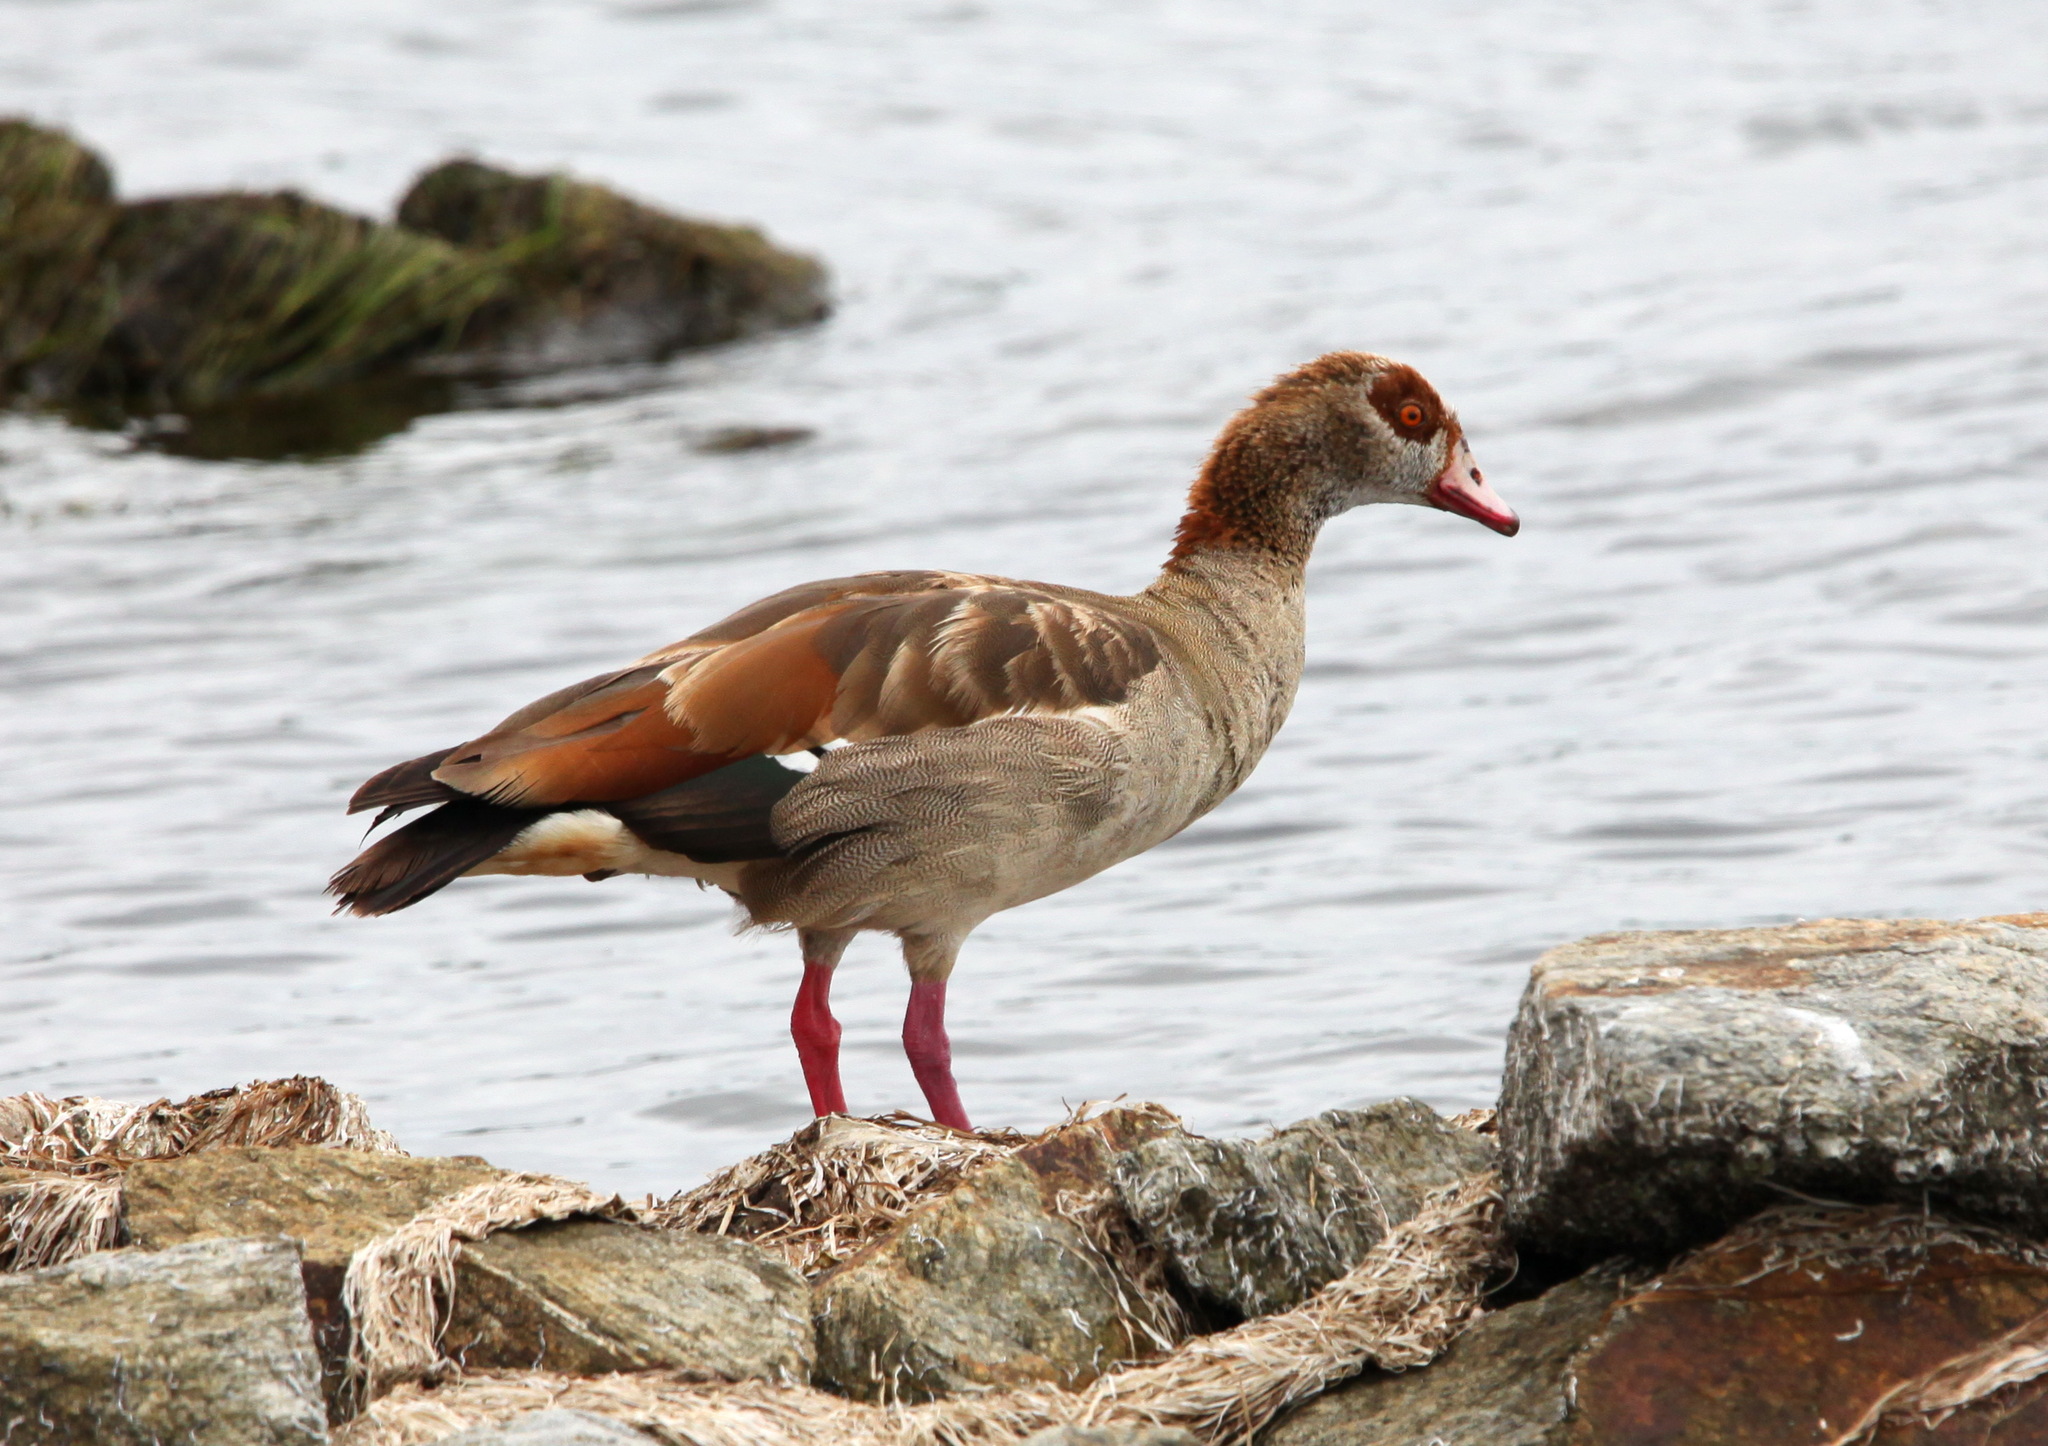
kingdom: Animalia
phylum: Chordata
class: Aves
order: Anseriformes
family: Anatidae
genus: Alopochen
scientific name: Alopochen aegyptiaca
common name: Egyptian goose
